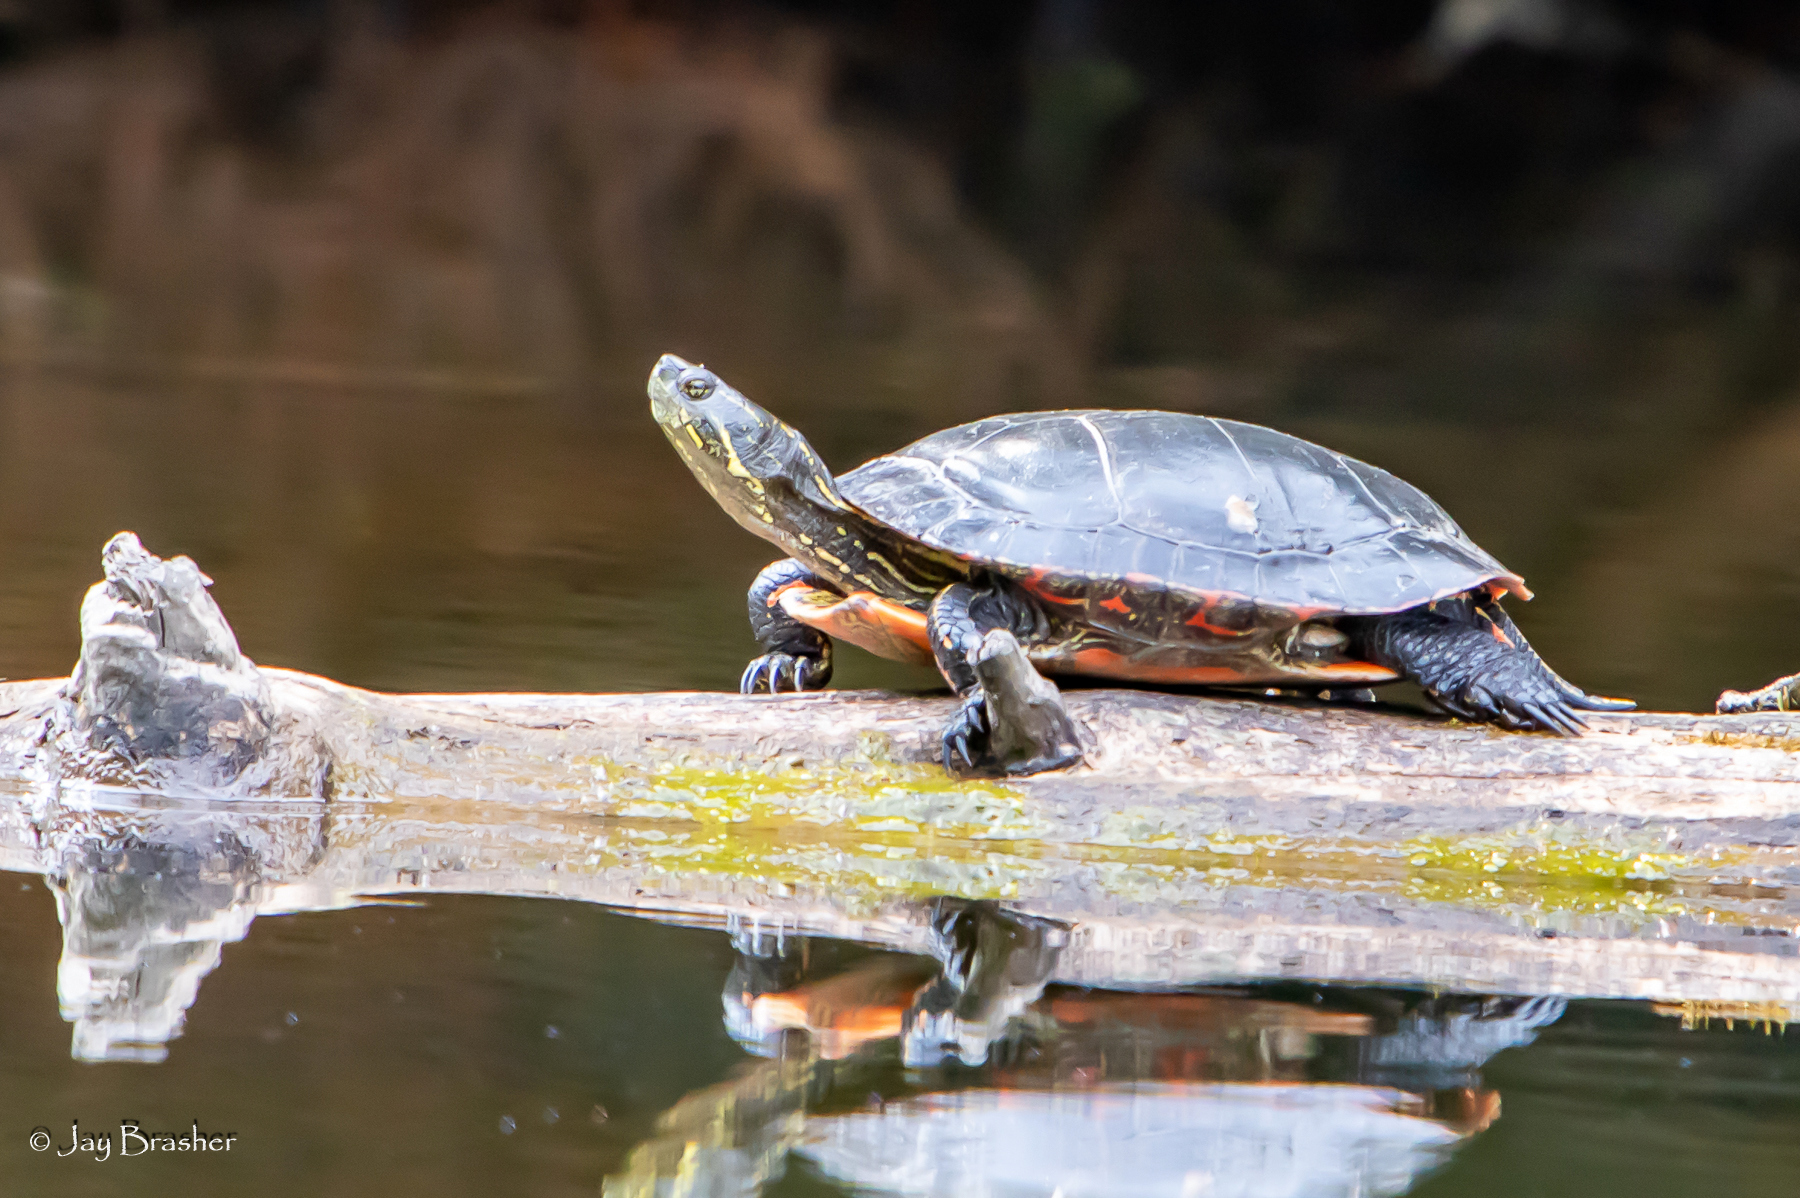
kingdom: Animalia
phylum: Chordata
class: Testudines
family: Emydidae
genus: Chrysemys
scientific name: Chrysemys picta
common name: Painted turtle
